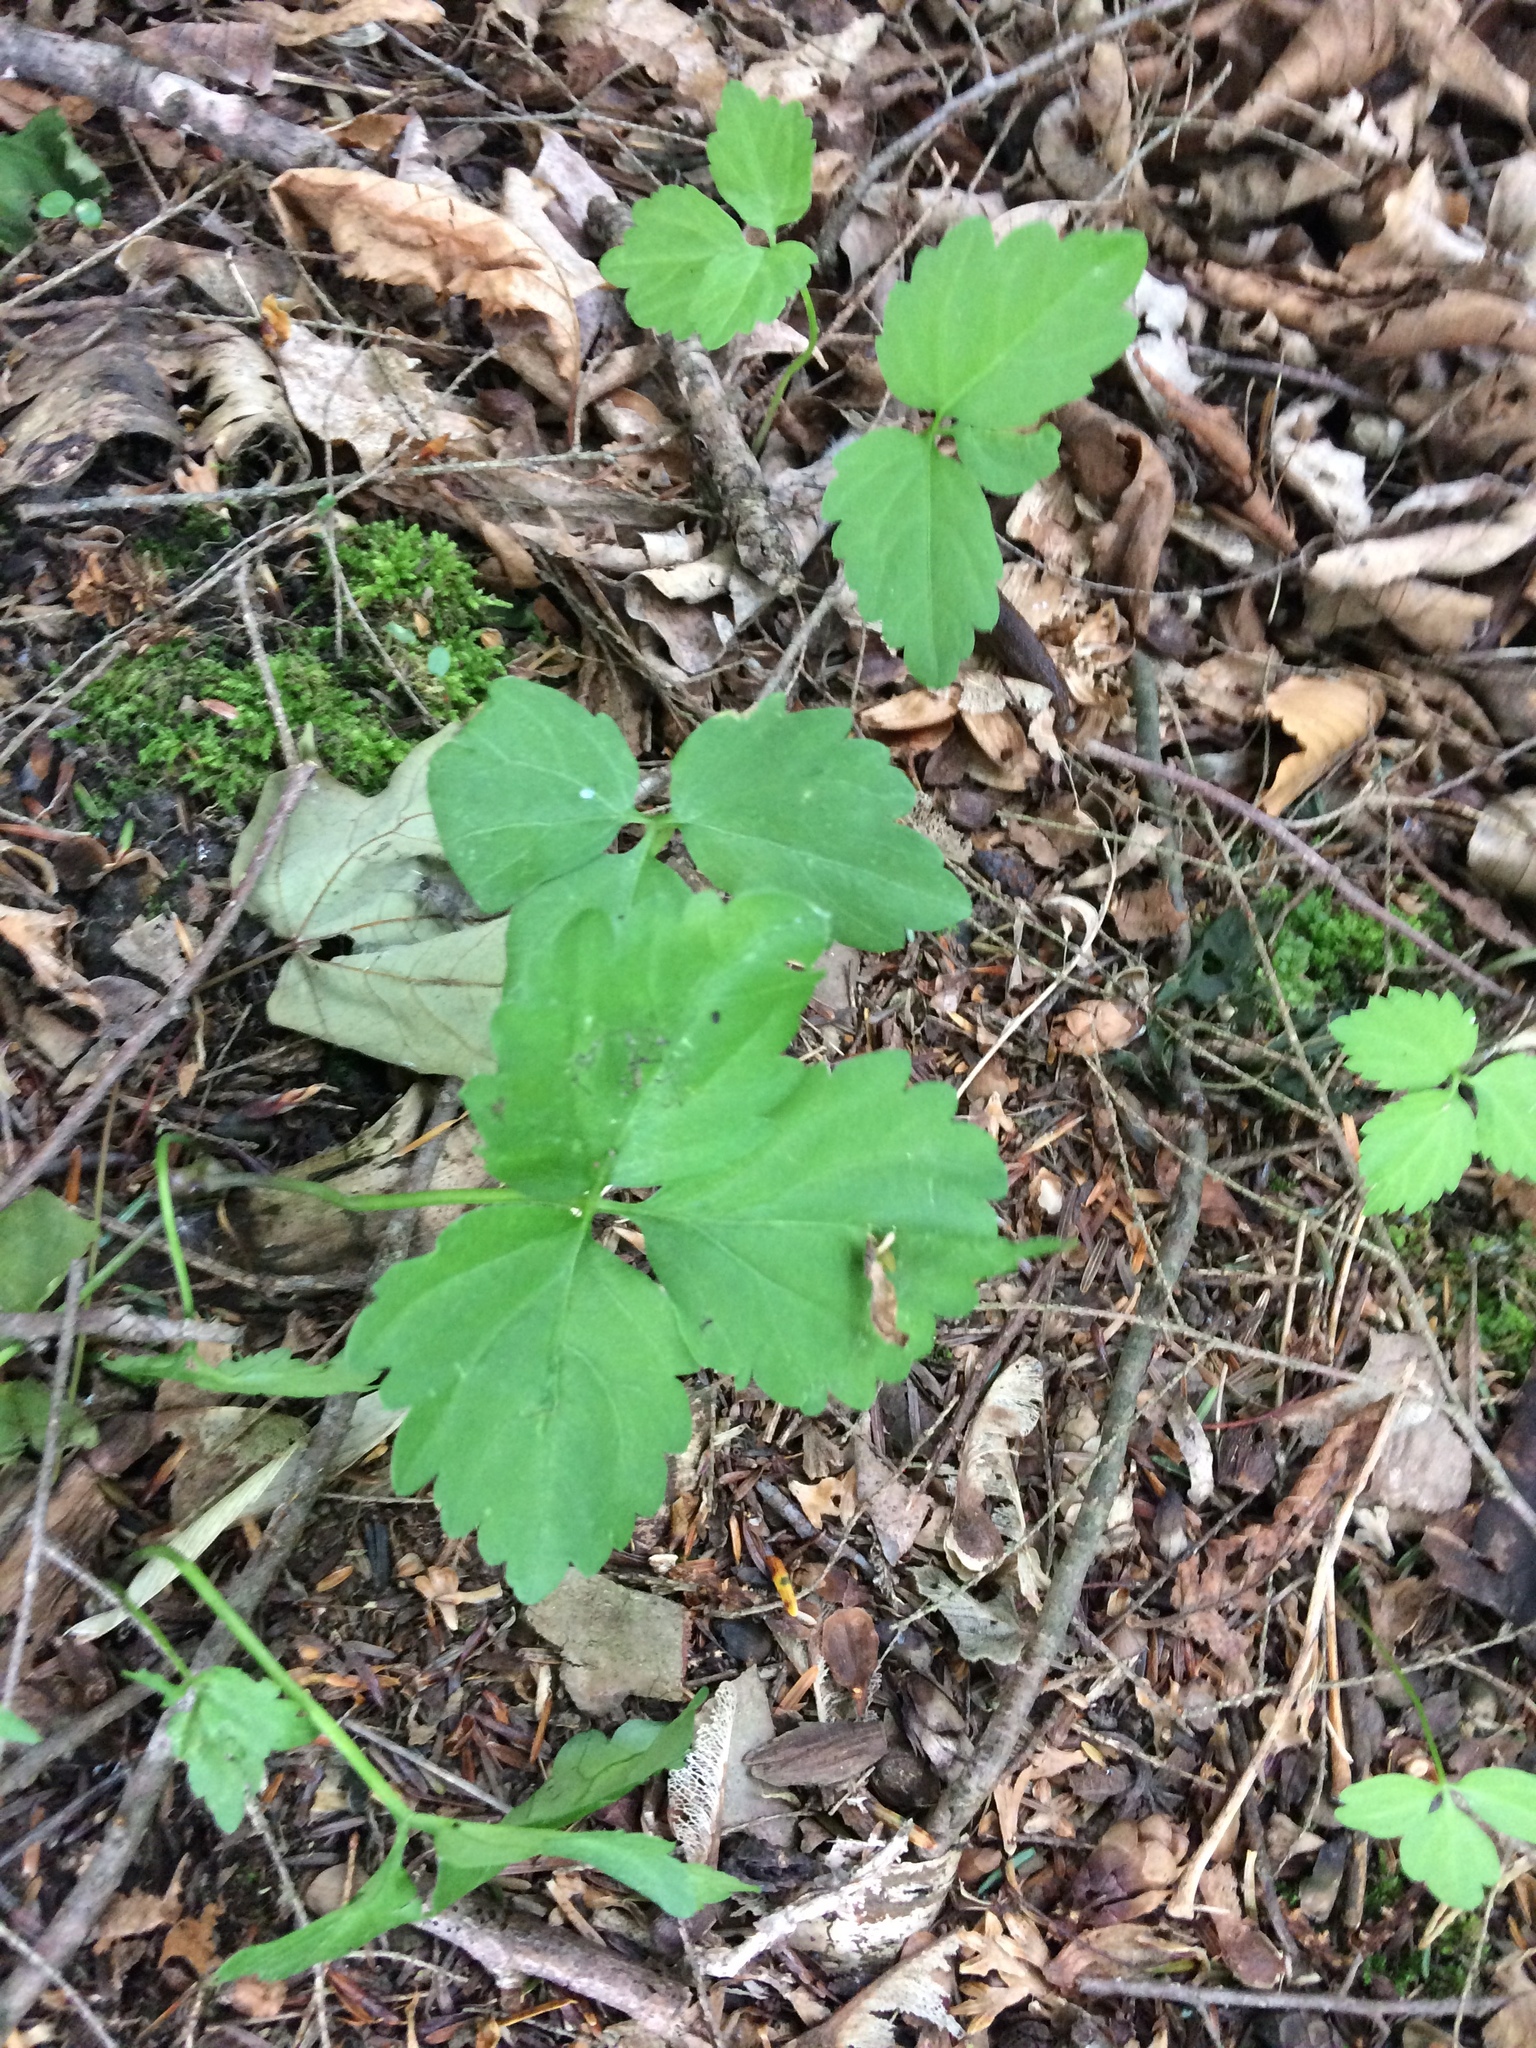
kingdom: Plantae
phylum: Tracheophyta
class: Magnoliopsida
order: Brassicales
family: Brassicaceae
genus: Cardamine
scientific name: Cardamine diphylla
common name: Broad-leaved toothwort
